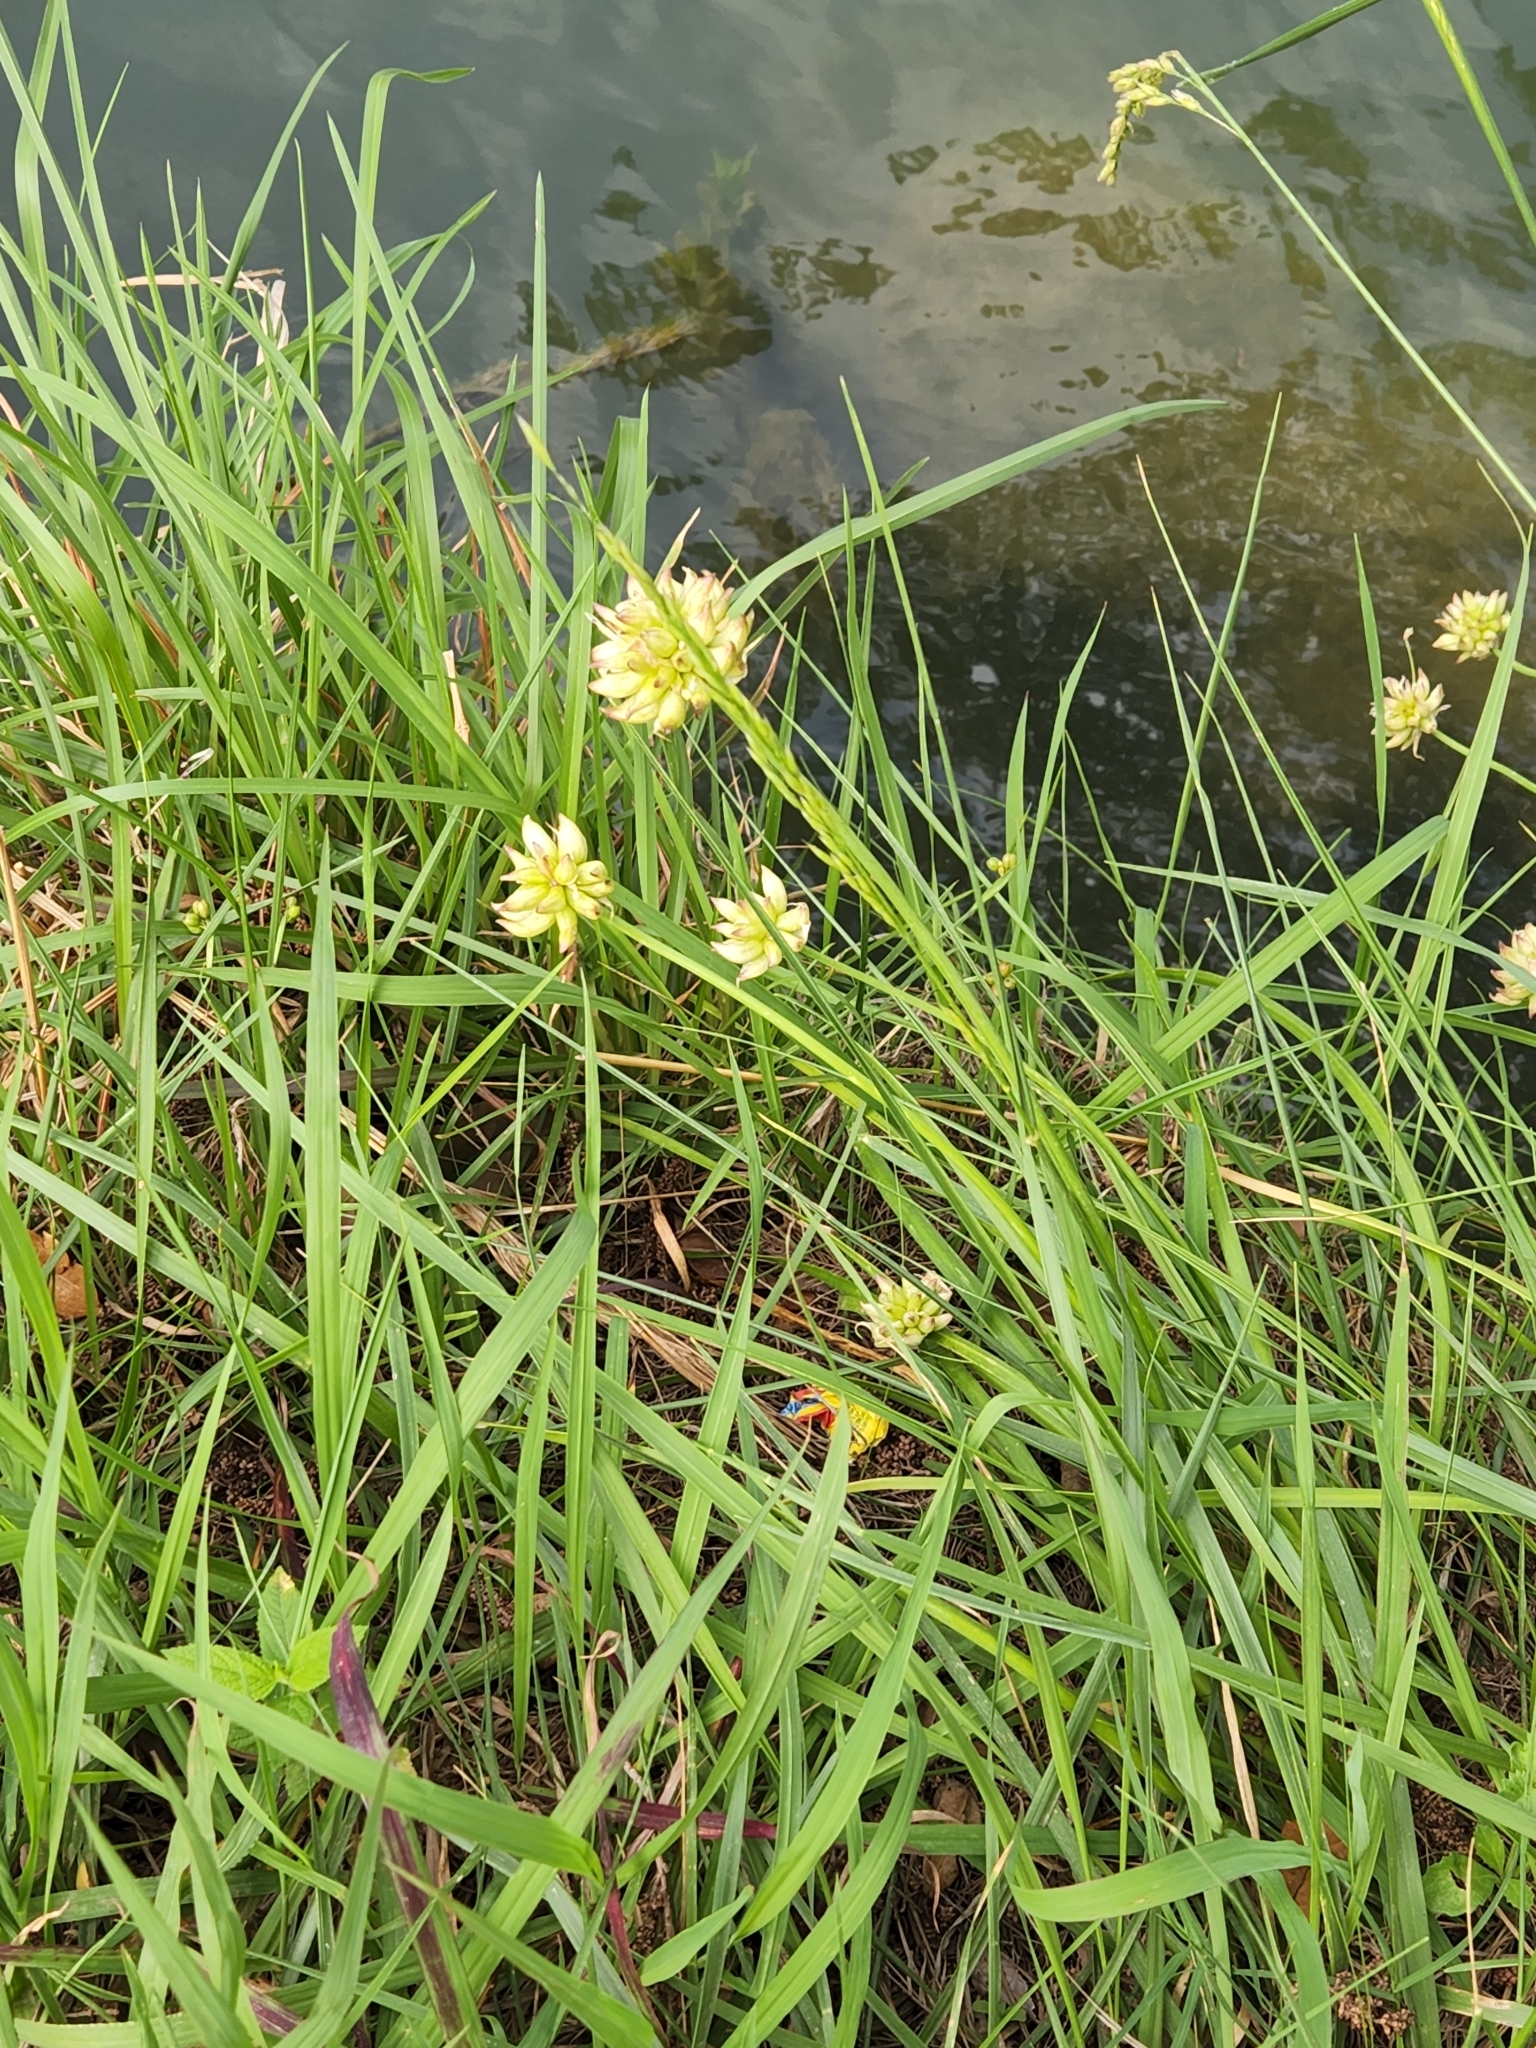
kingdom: Plantae
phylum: Tracheophyta
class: Liliopsida
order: Asparagales
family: Amaryllidaceae
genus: Allium
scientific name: Allium canadense
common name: Meadow garlic
